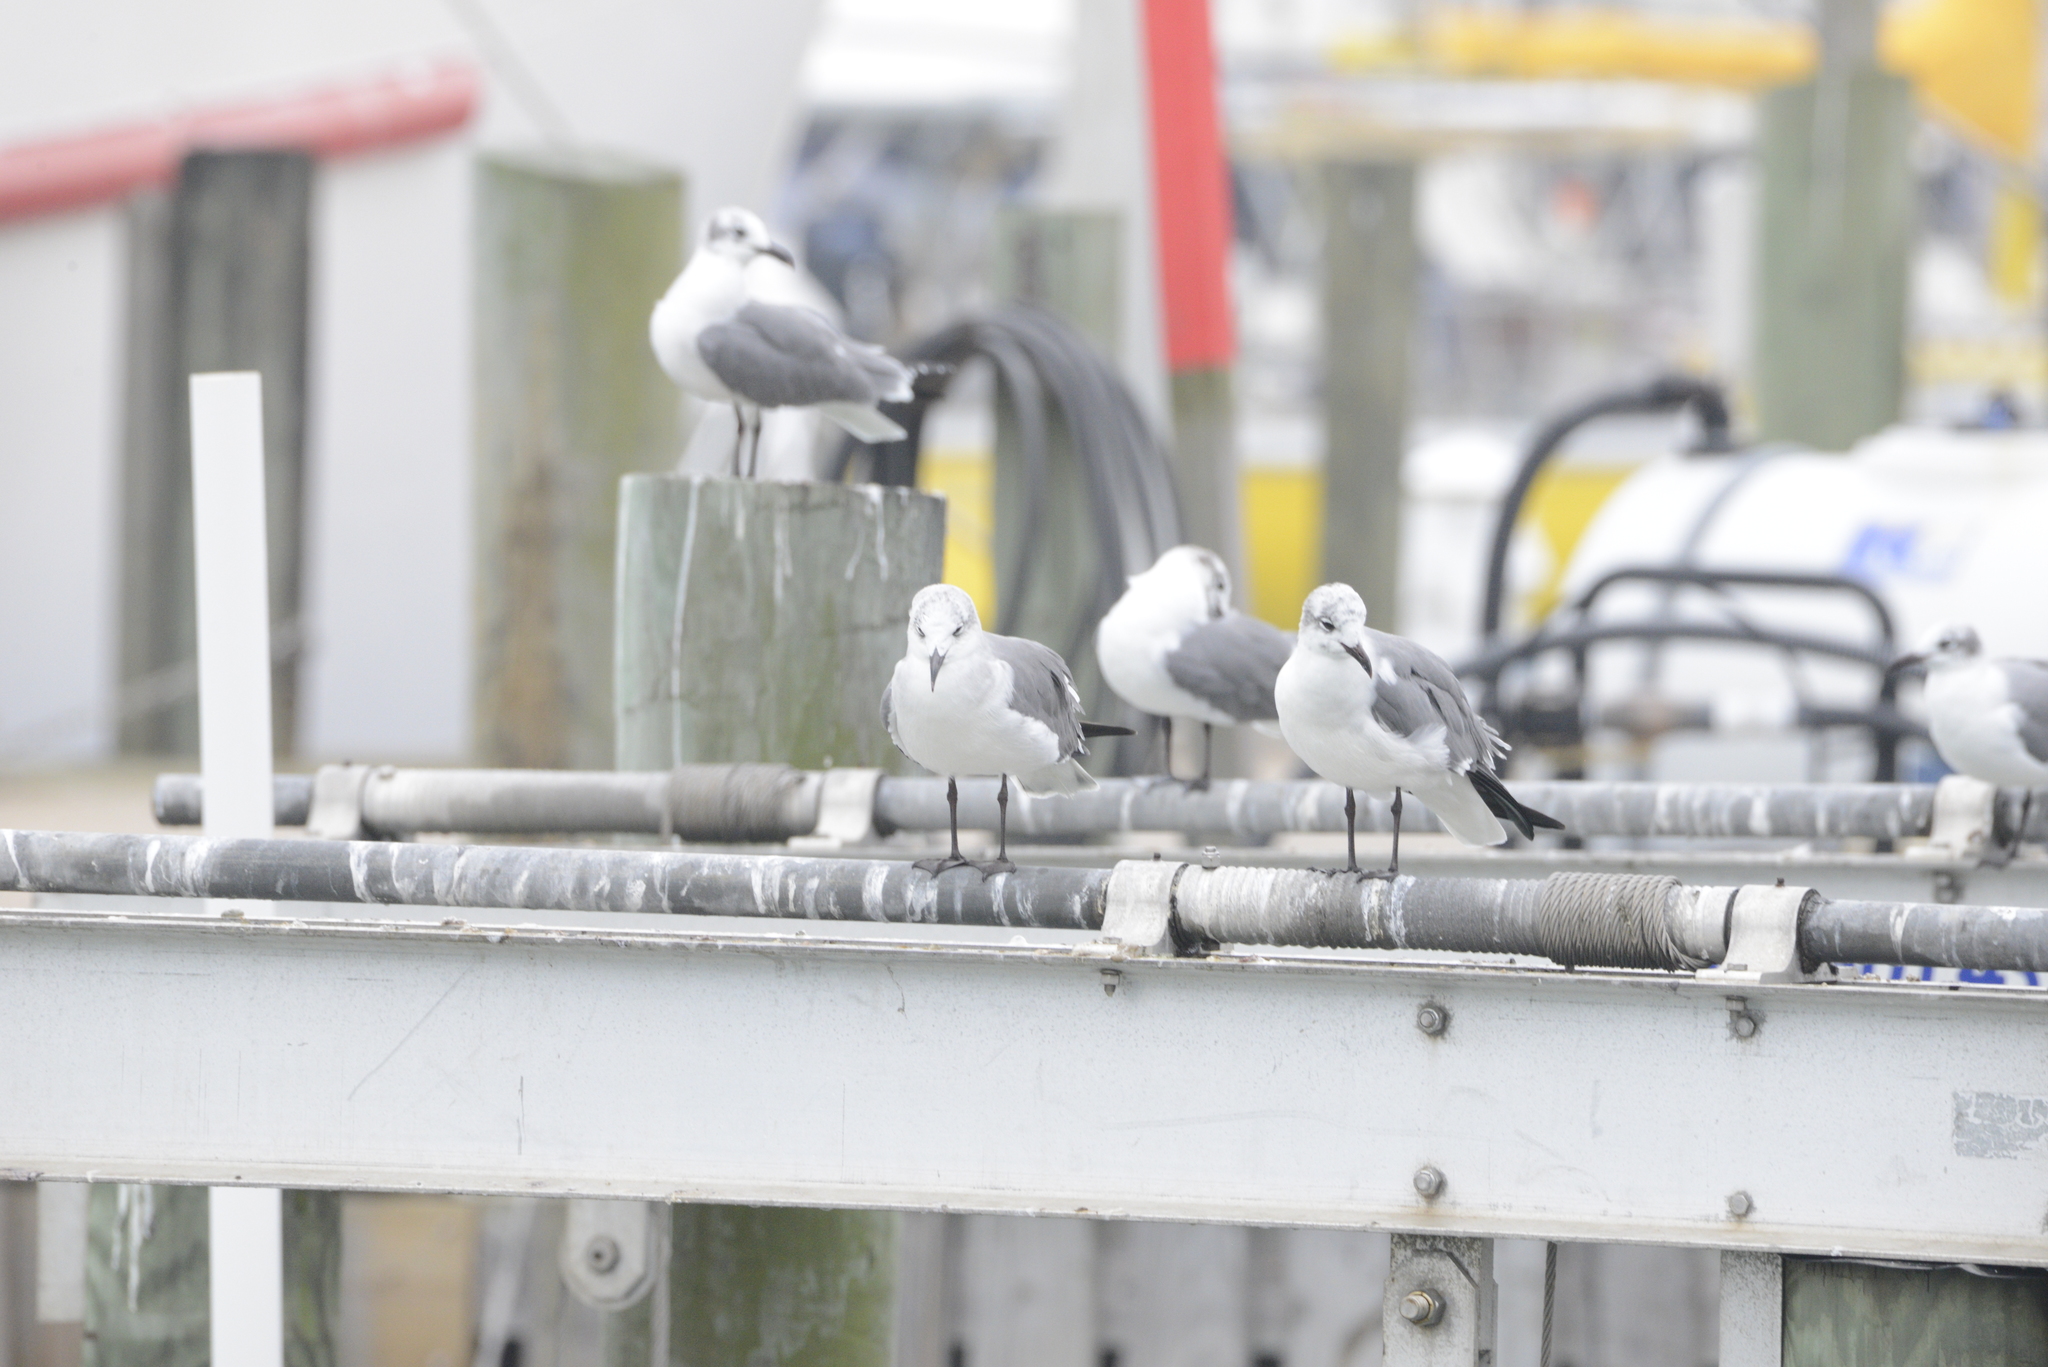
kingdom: Animalia
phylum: Chordata
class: Aves
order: Charadriiformes
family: Laridae
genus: Leucophaeus
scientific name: Leucophaeus atricilla
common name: Laughing gull
